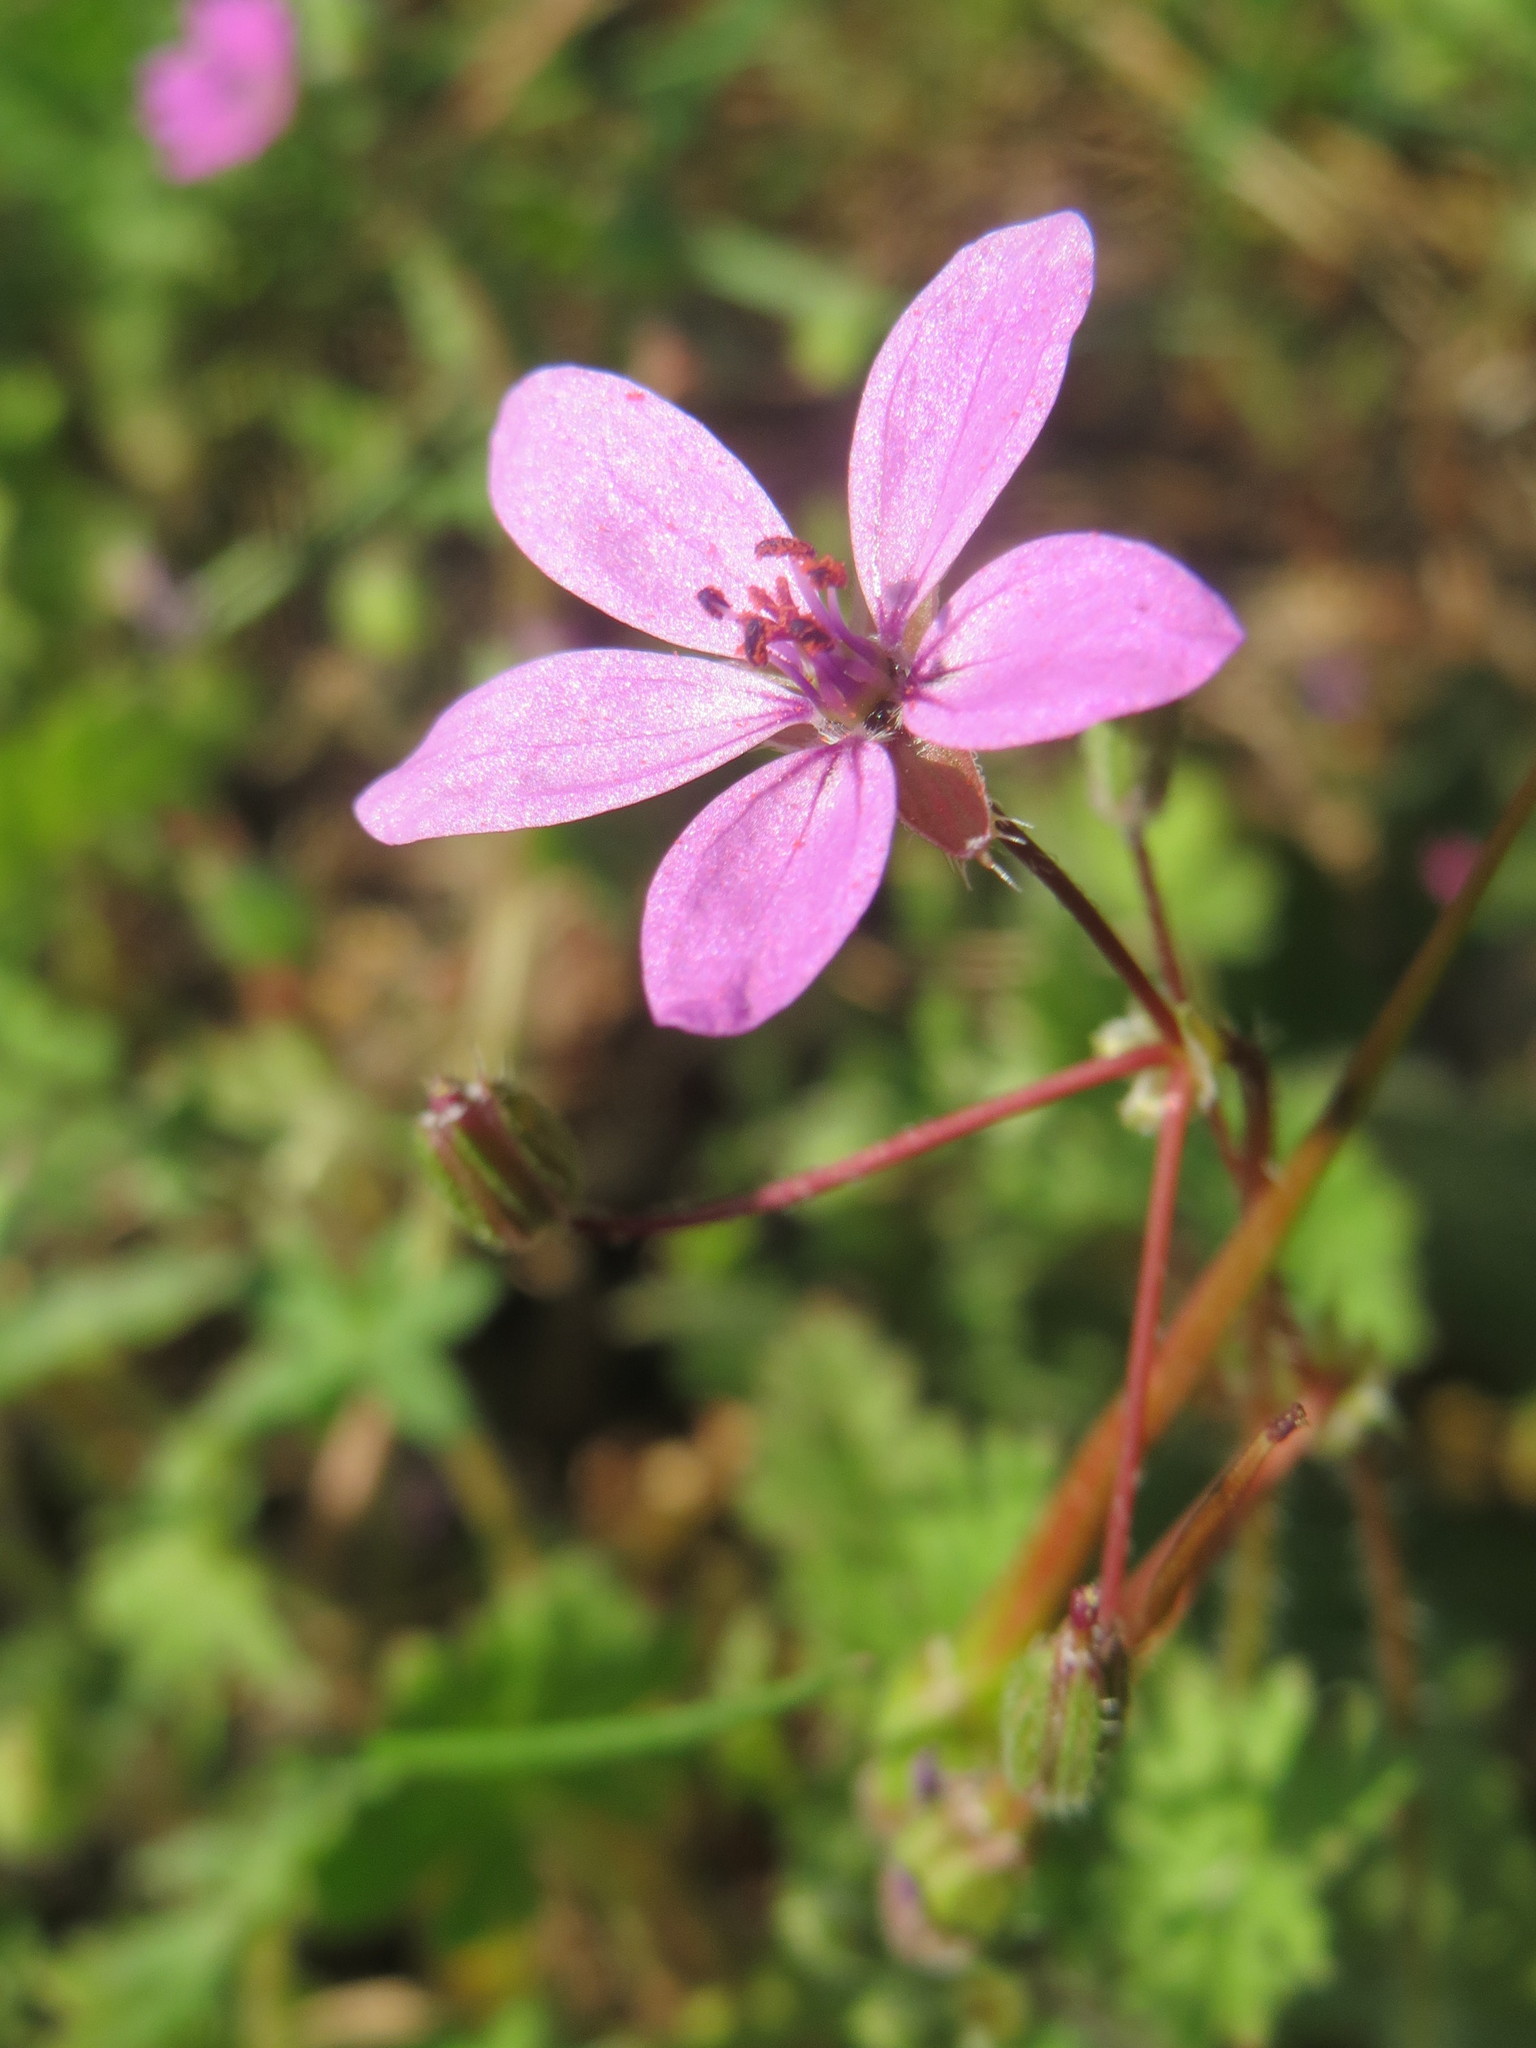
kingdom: Plantae
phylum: Tracheophyta
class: Magnoliopsida
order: Geraniales
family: Geraniaceae
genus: Erodium
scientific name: Erodium cicutarium
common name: Common stork's-bill
